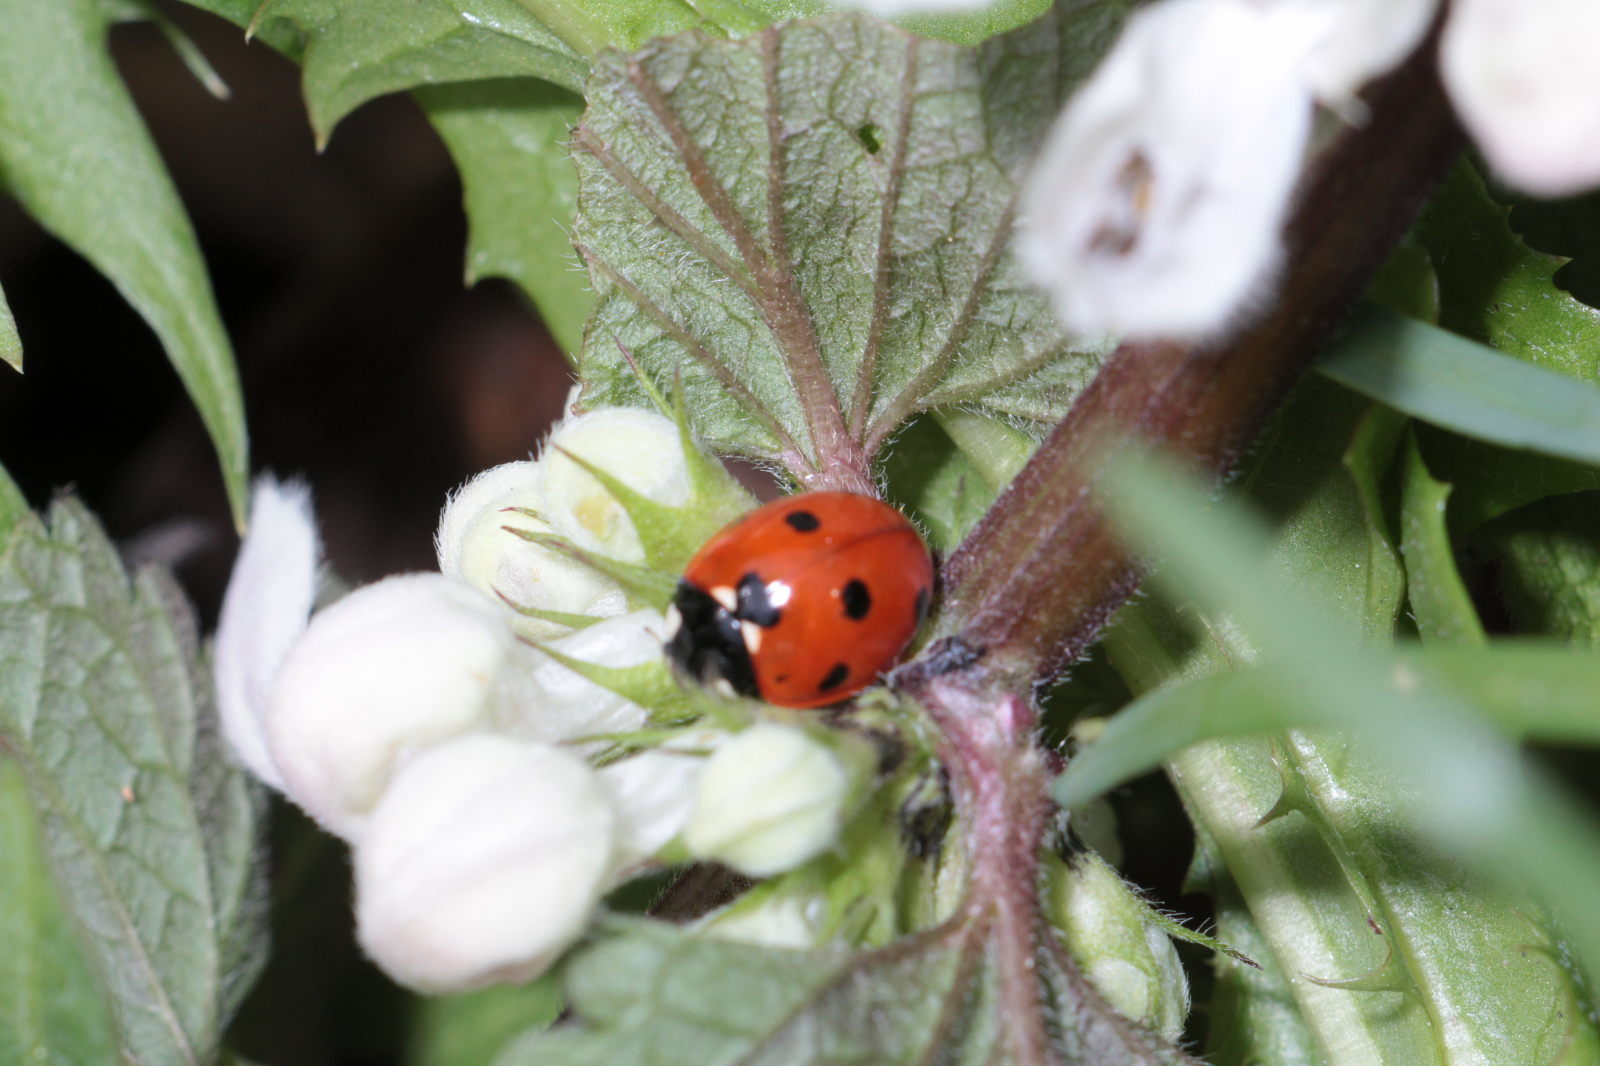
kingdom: Animalia
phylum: Arthropoda
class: Insecta
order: Coleoptera
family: Coccinellidae
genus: Coccinella
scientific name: Coccinella septempunctata
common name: Sevenspotted lady beetle
